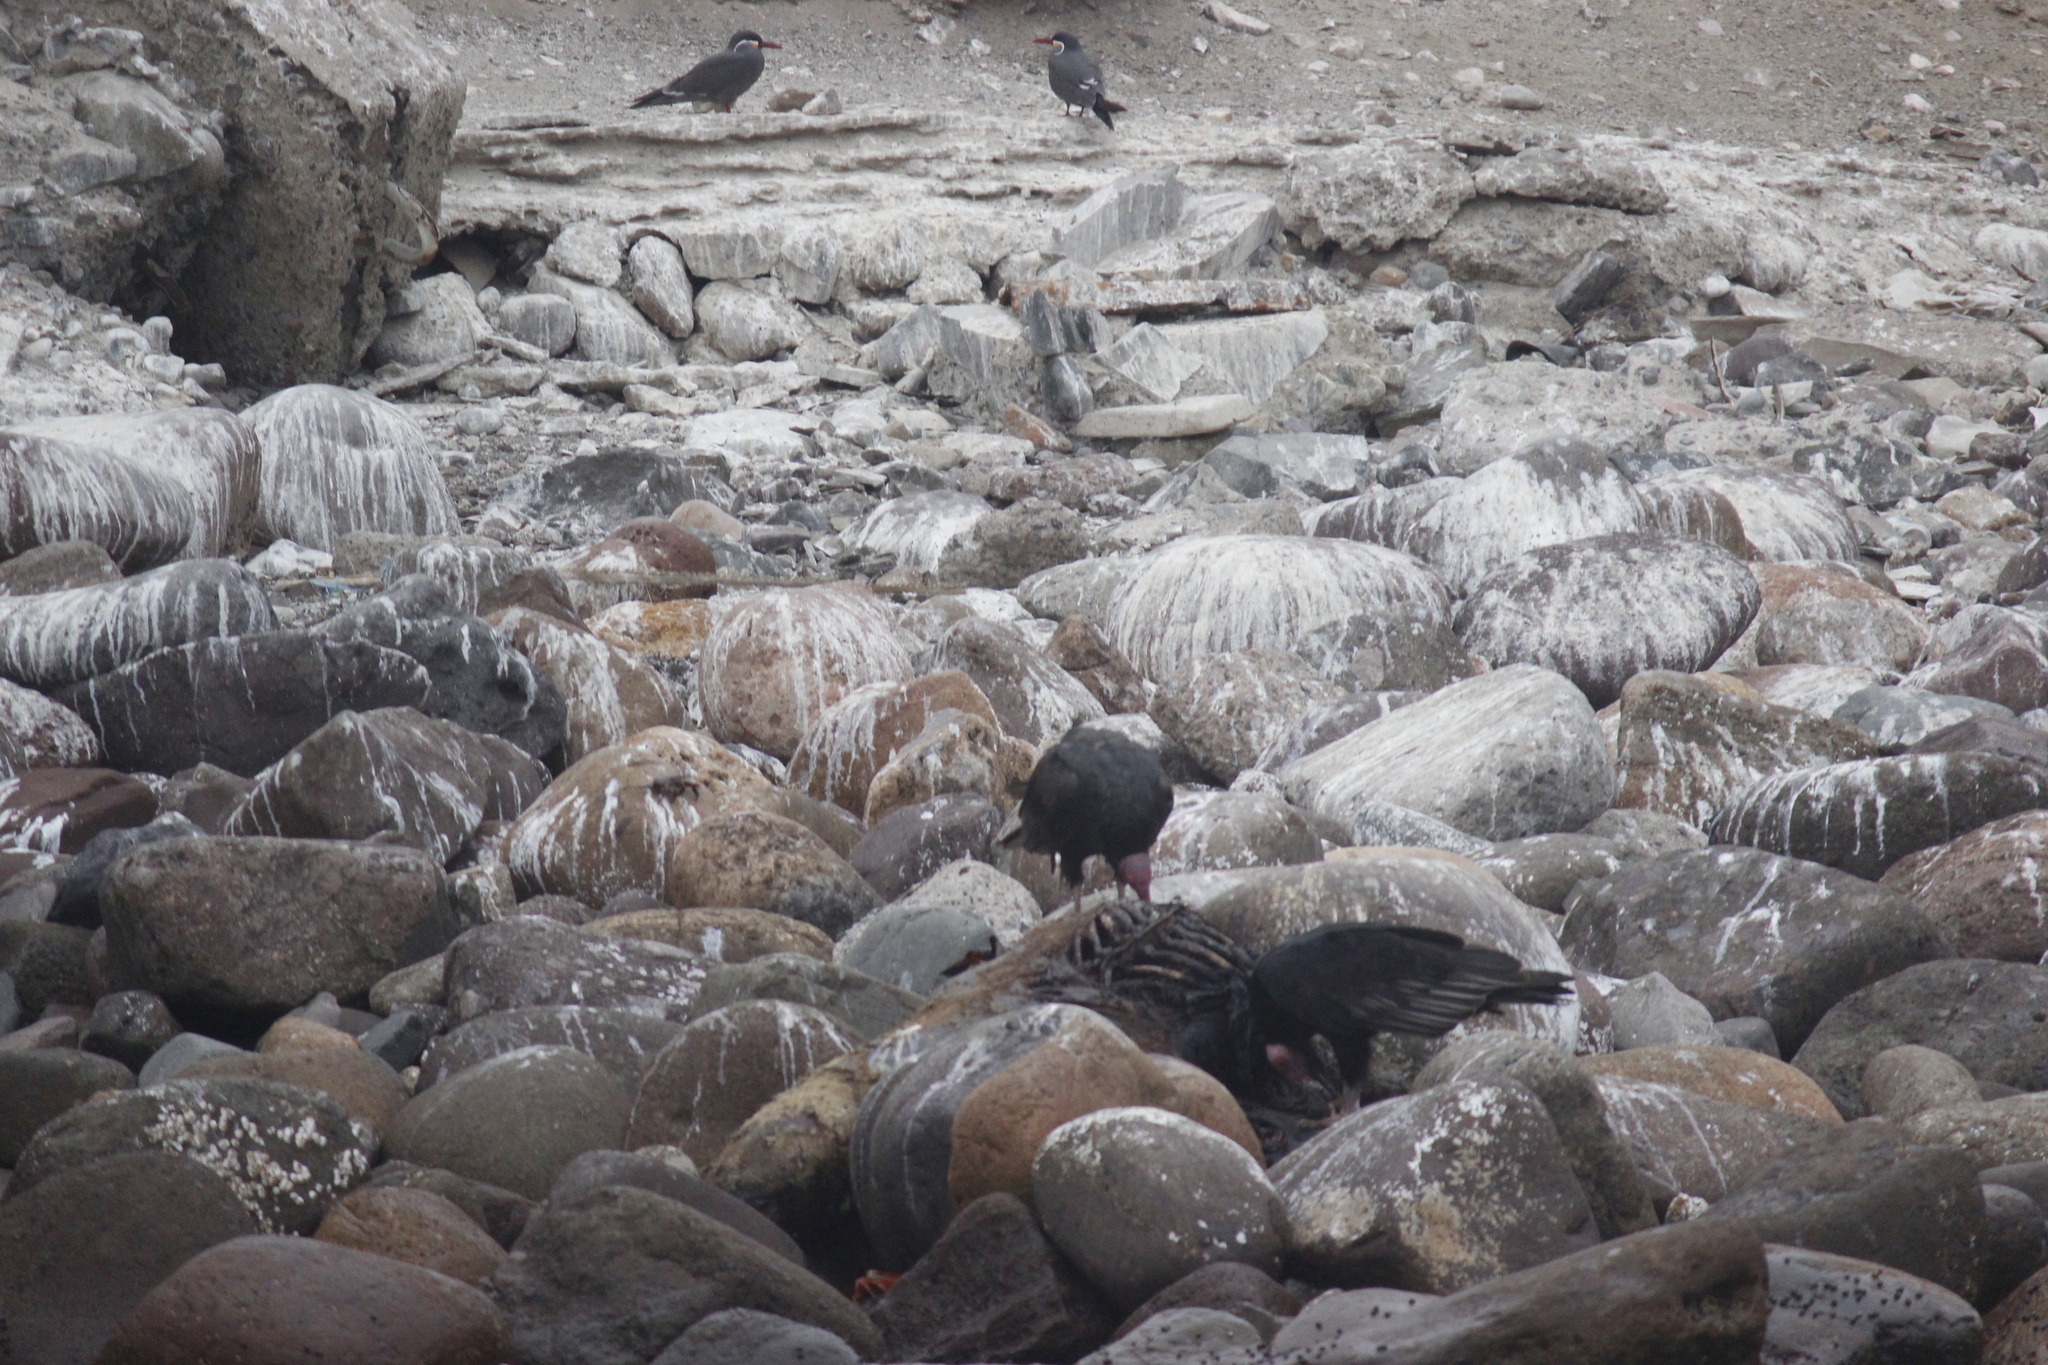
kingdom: Animalia
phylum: Chordata
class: Aves
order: Accipitriformes
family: Cathartidae
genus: Cathartes
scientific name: Cathartes aura
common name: Turkey vulture
